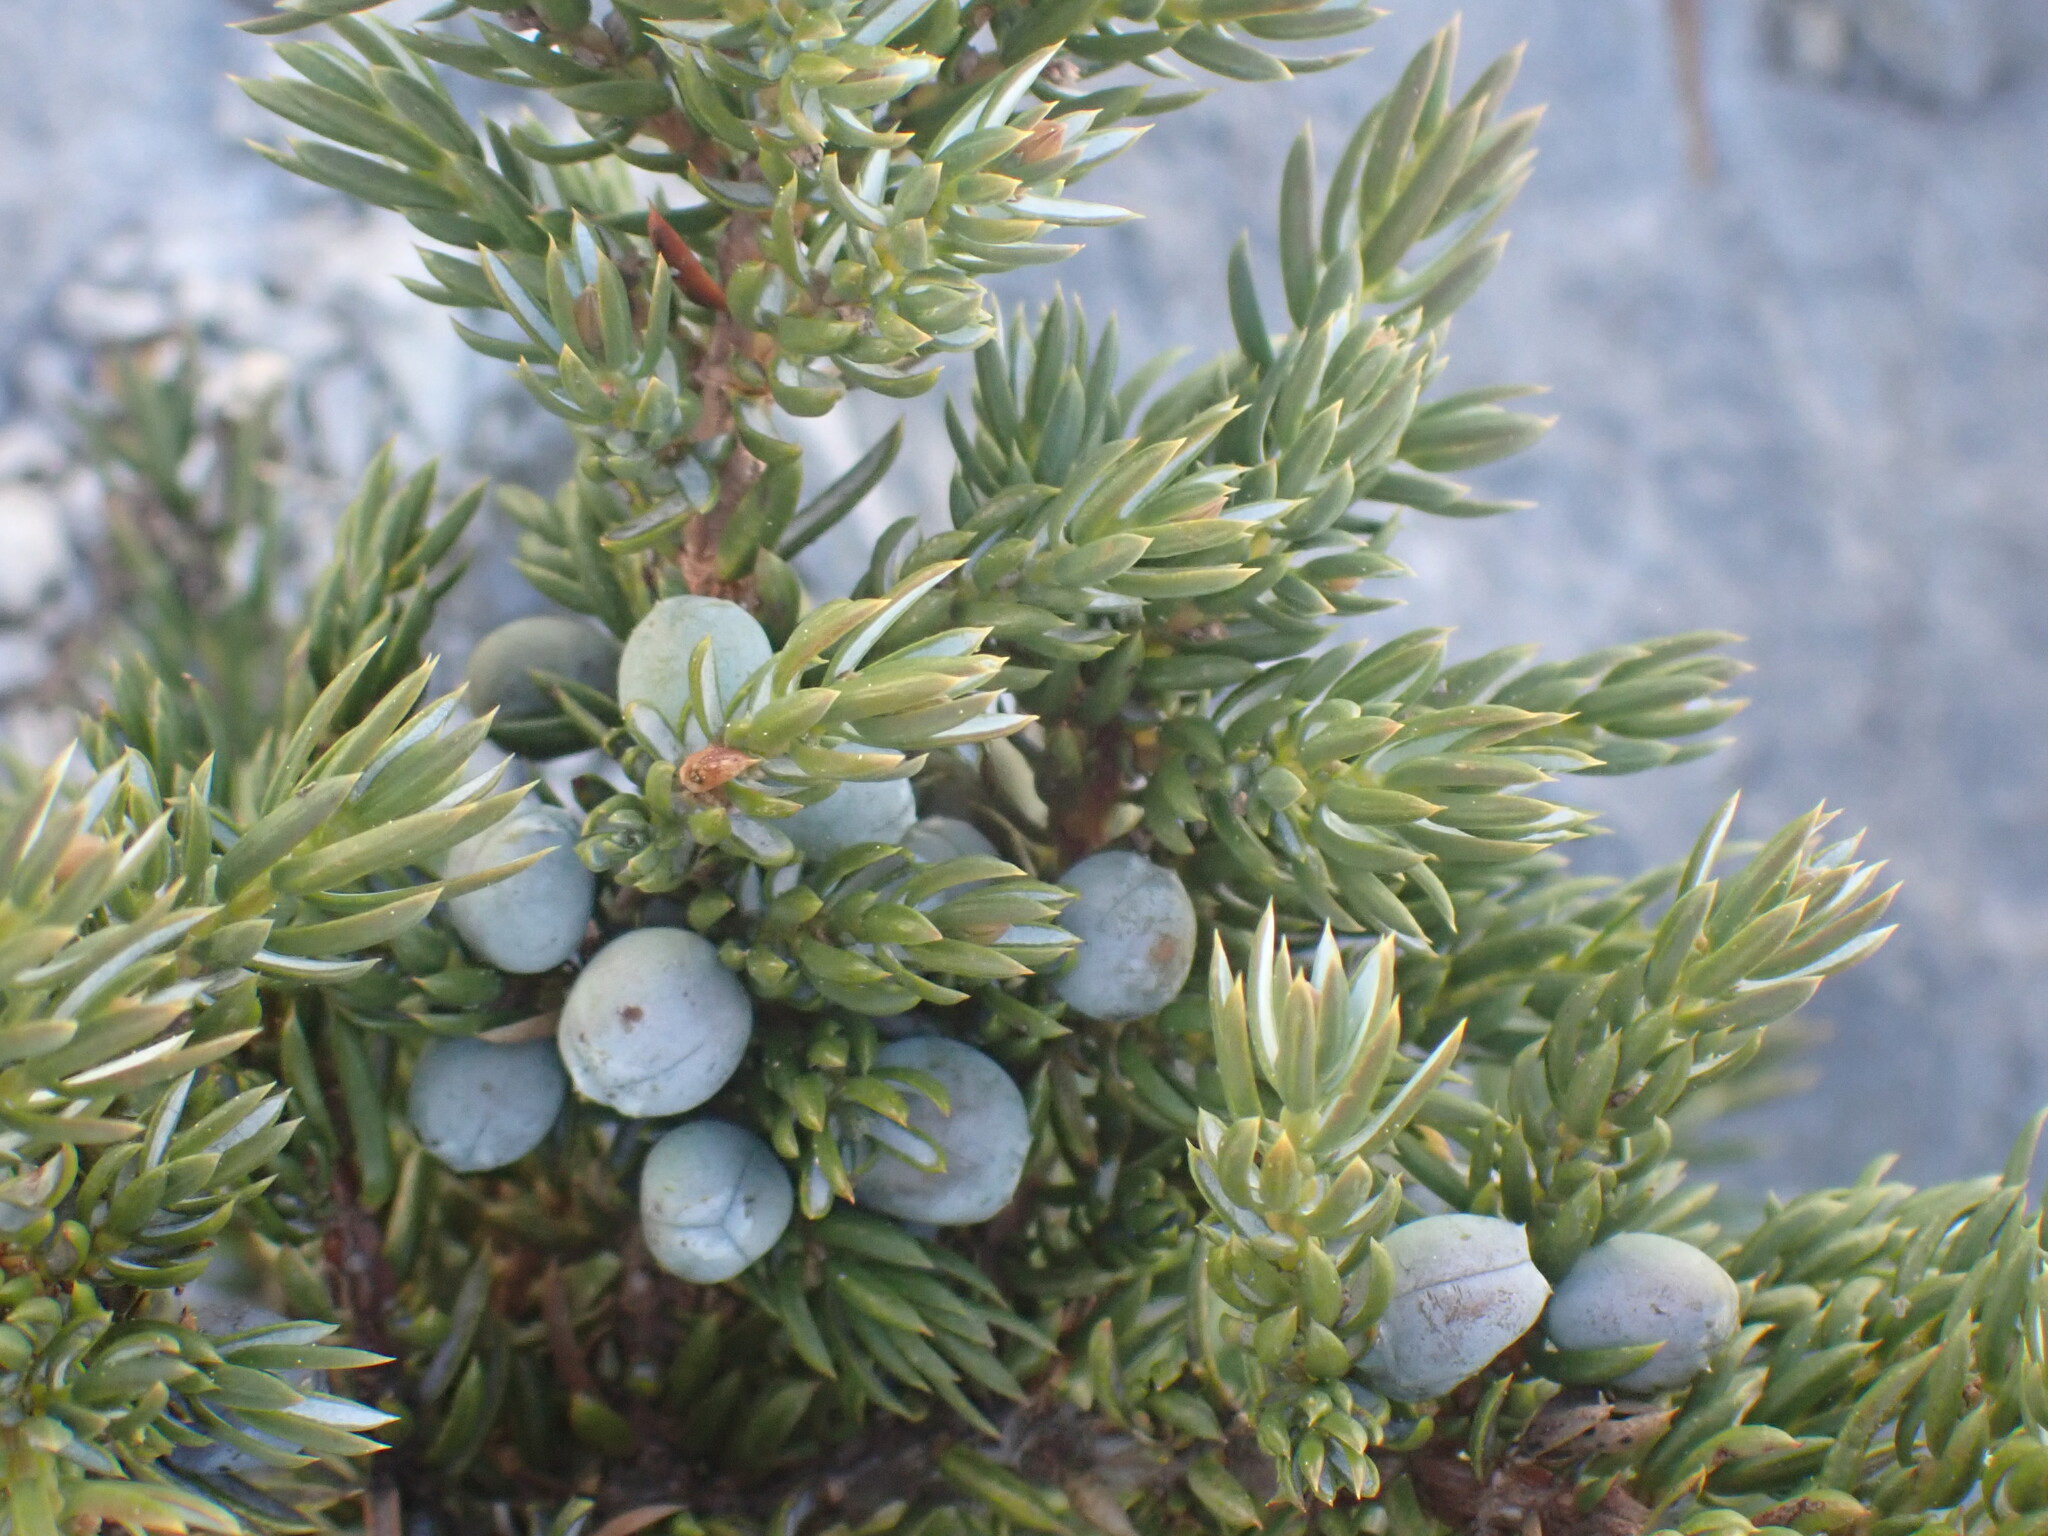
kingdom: Plantae
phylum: Tracheophyta
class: Pinopsida
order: Pinales
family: Cupressaceae
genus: Juniperus
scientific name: Juniperus communis
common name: Common juniper
